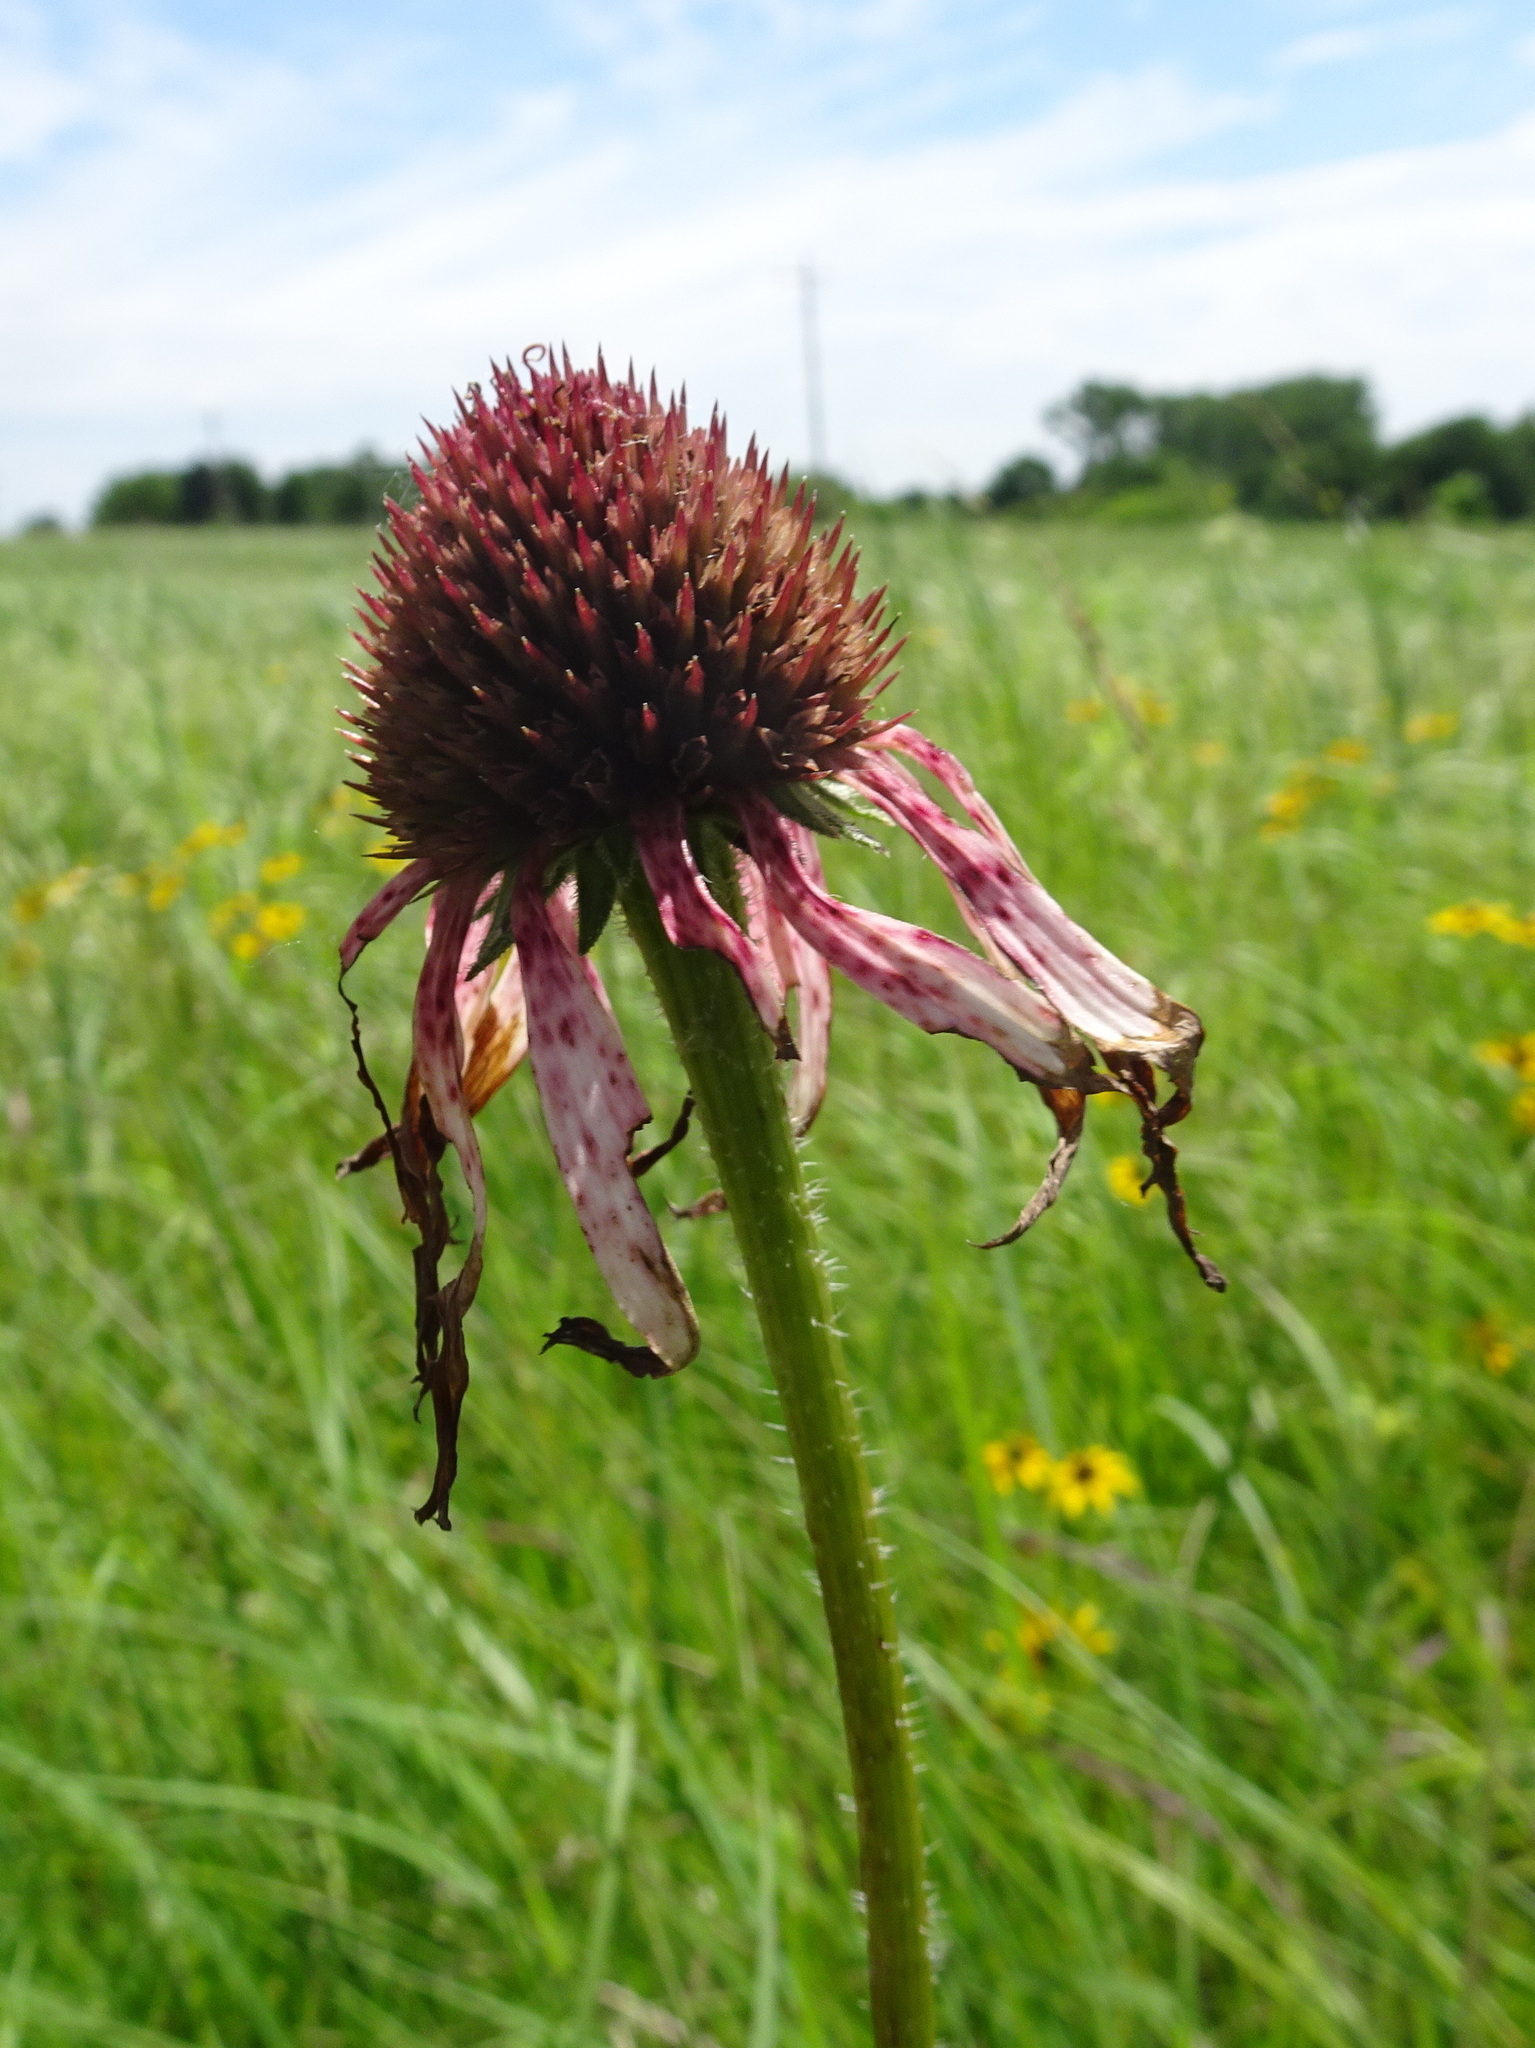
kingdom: Plantae
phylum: Tracheophyta
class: Magnoliopsida
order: Asterales
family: Asteraceae
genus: Echinacea
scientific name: Echinacea pallida
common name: Pale echinacea
